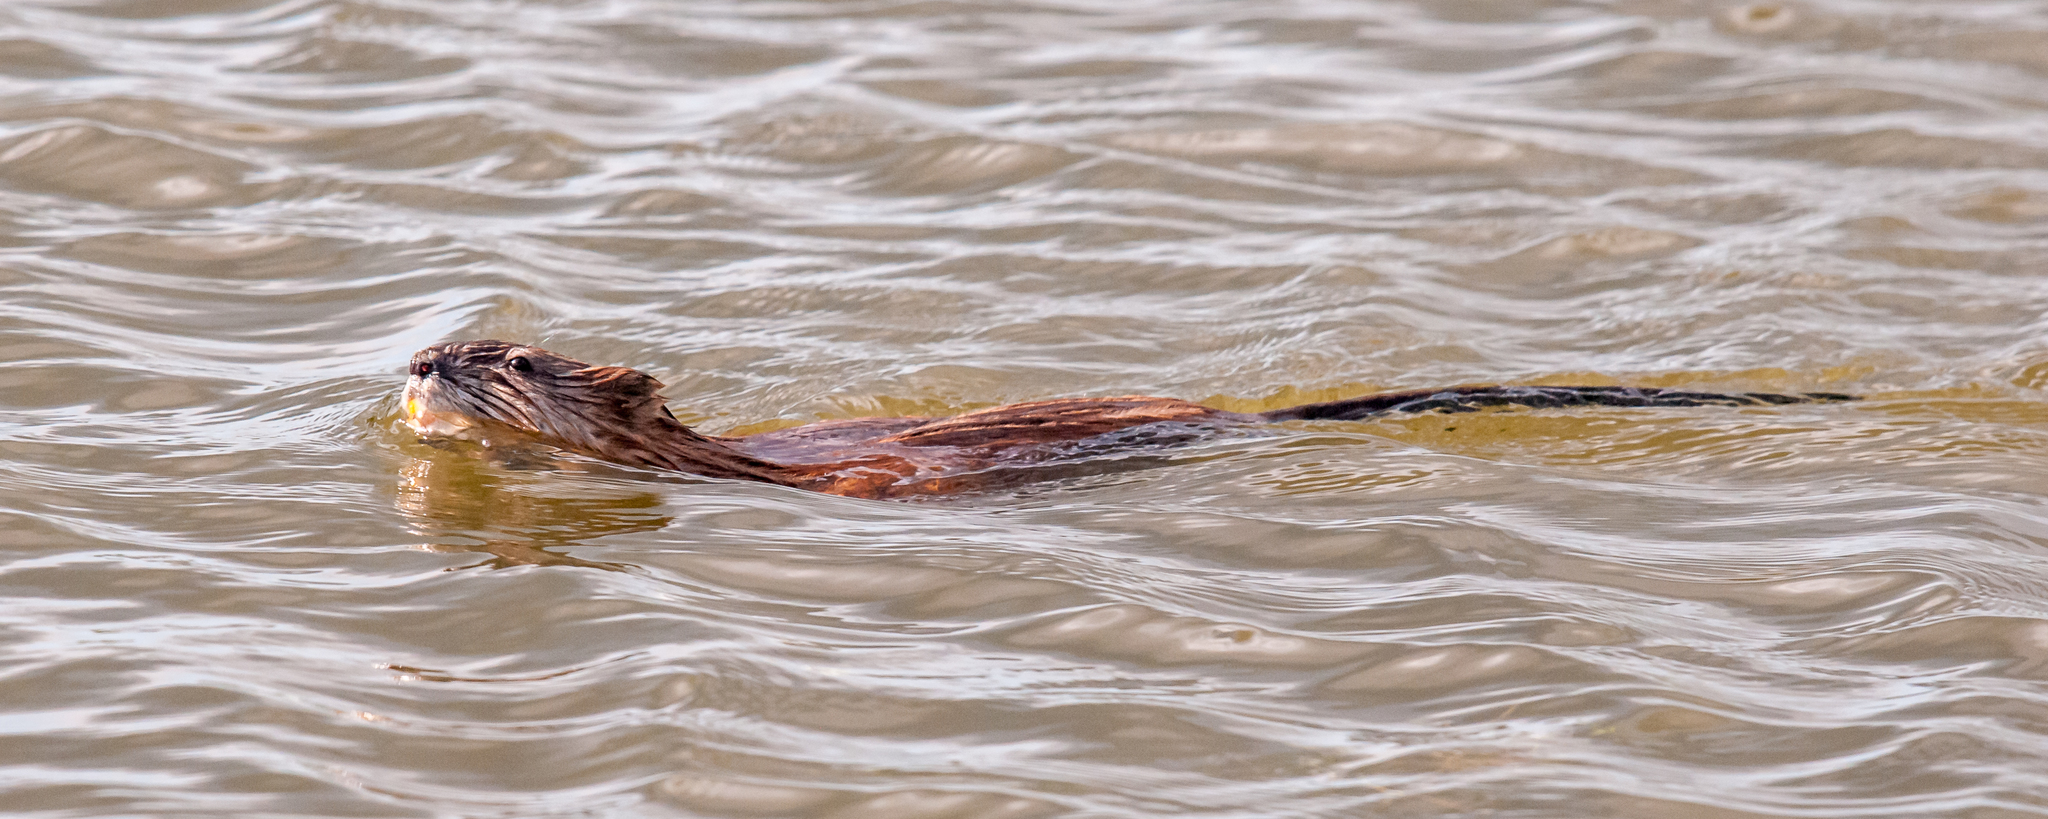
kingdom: Animalia
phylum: Chordata
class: Mammalia
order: Rodentia
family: Cricetidae
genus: Ondatra
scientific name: Ondatra zibethicus
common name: Muskrat
